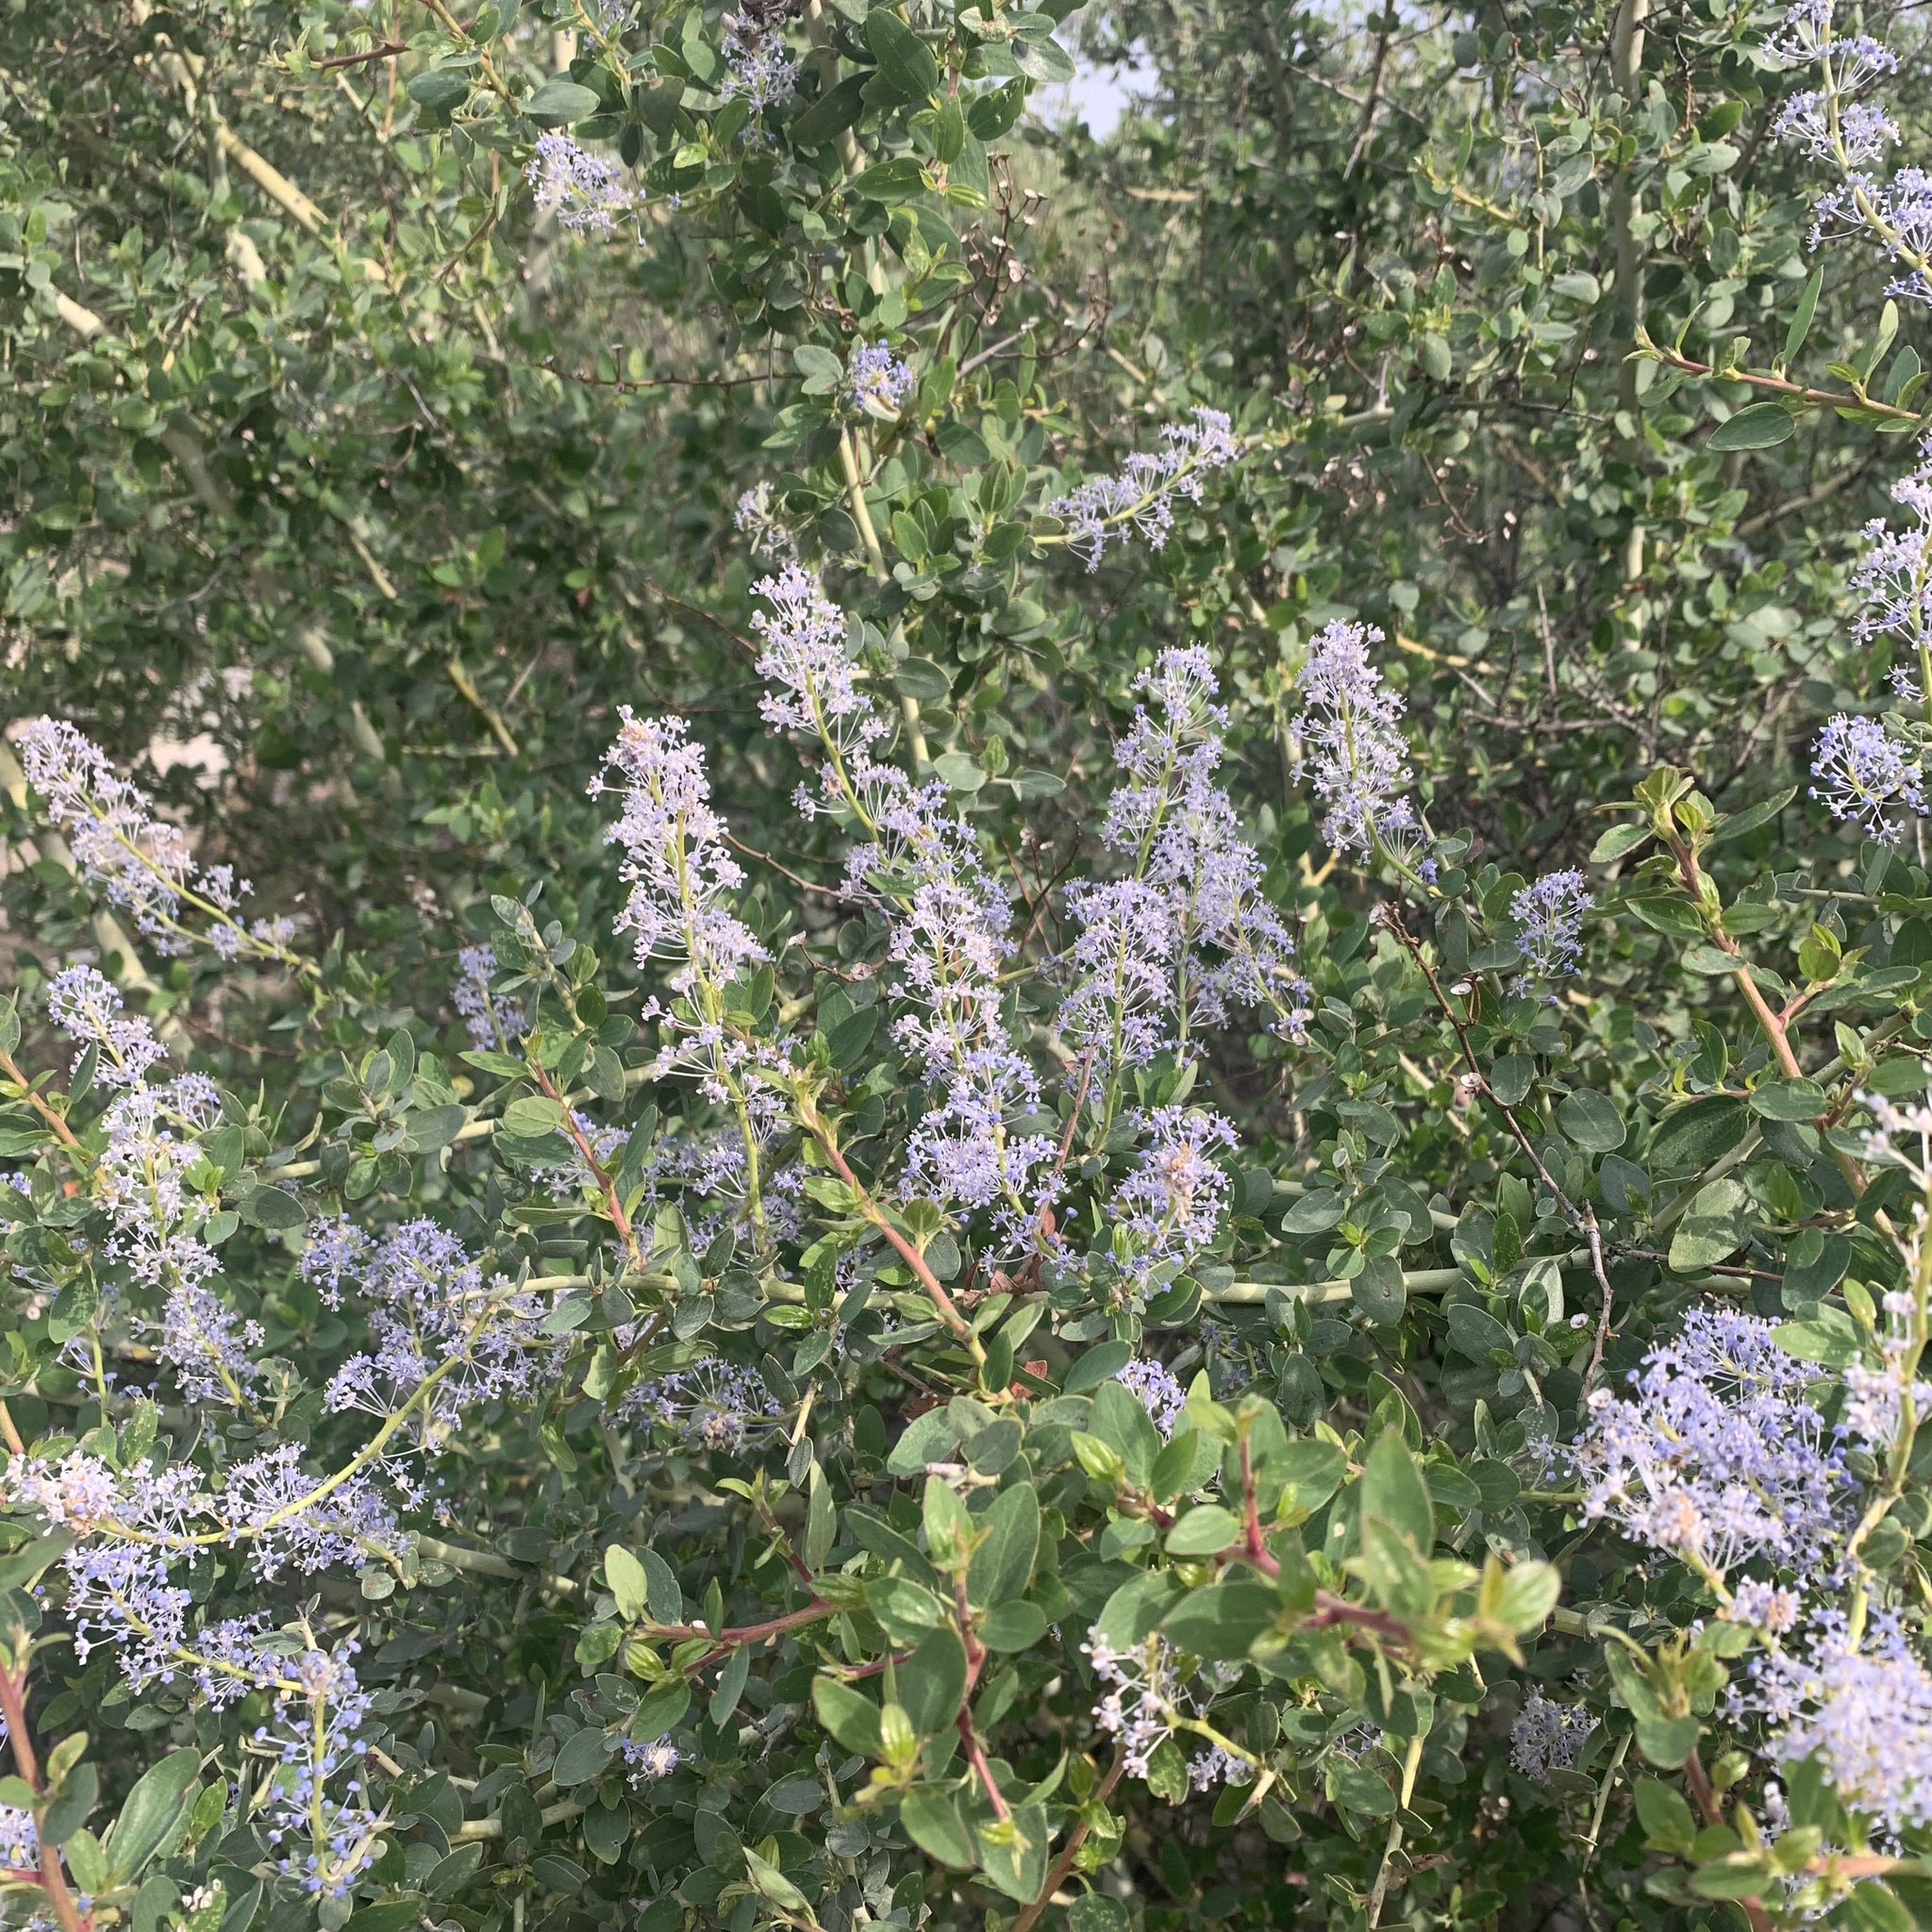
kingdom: Plantae
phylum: Tracheophyta
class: Magnoliopsida
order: Rosales
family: Rhamnaceae
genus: Ceanothus
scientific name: Ceanothus leucodermis
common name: Chaparral whitethorn
